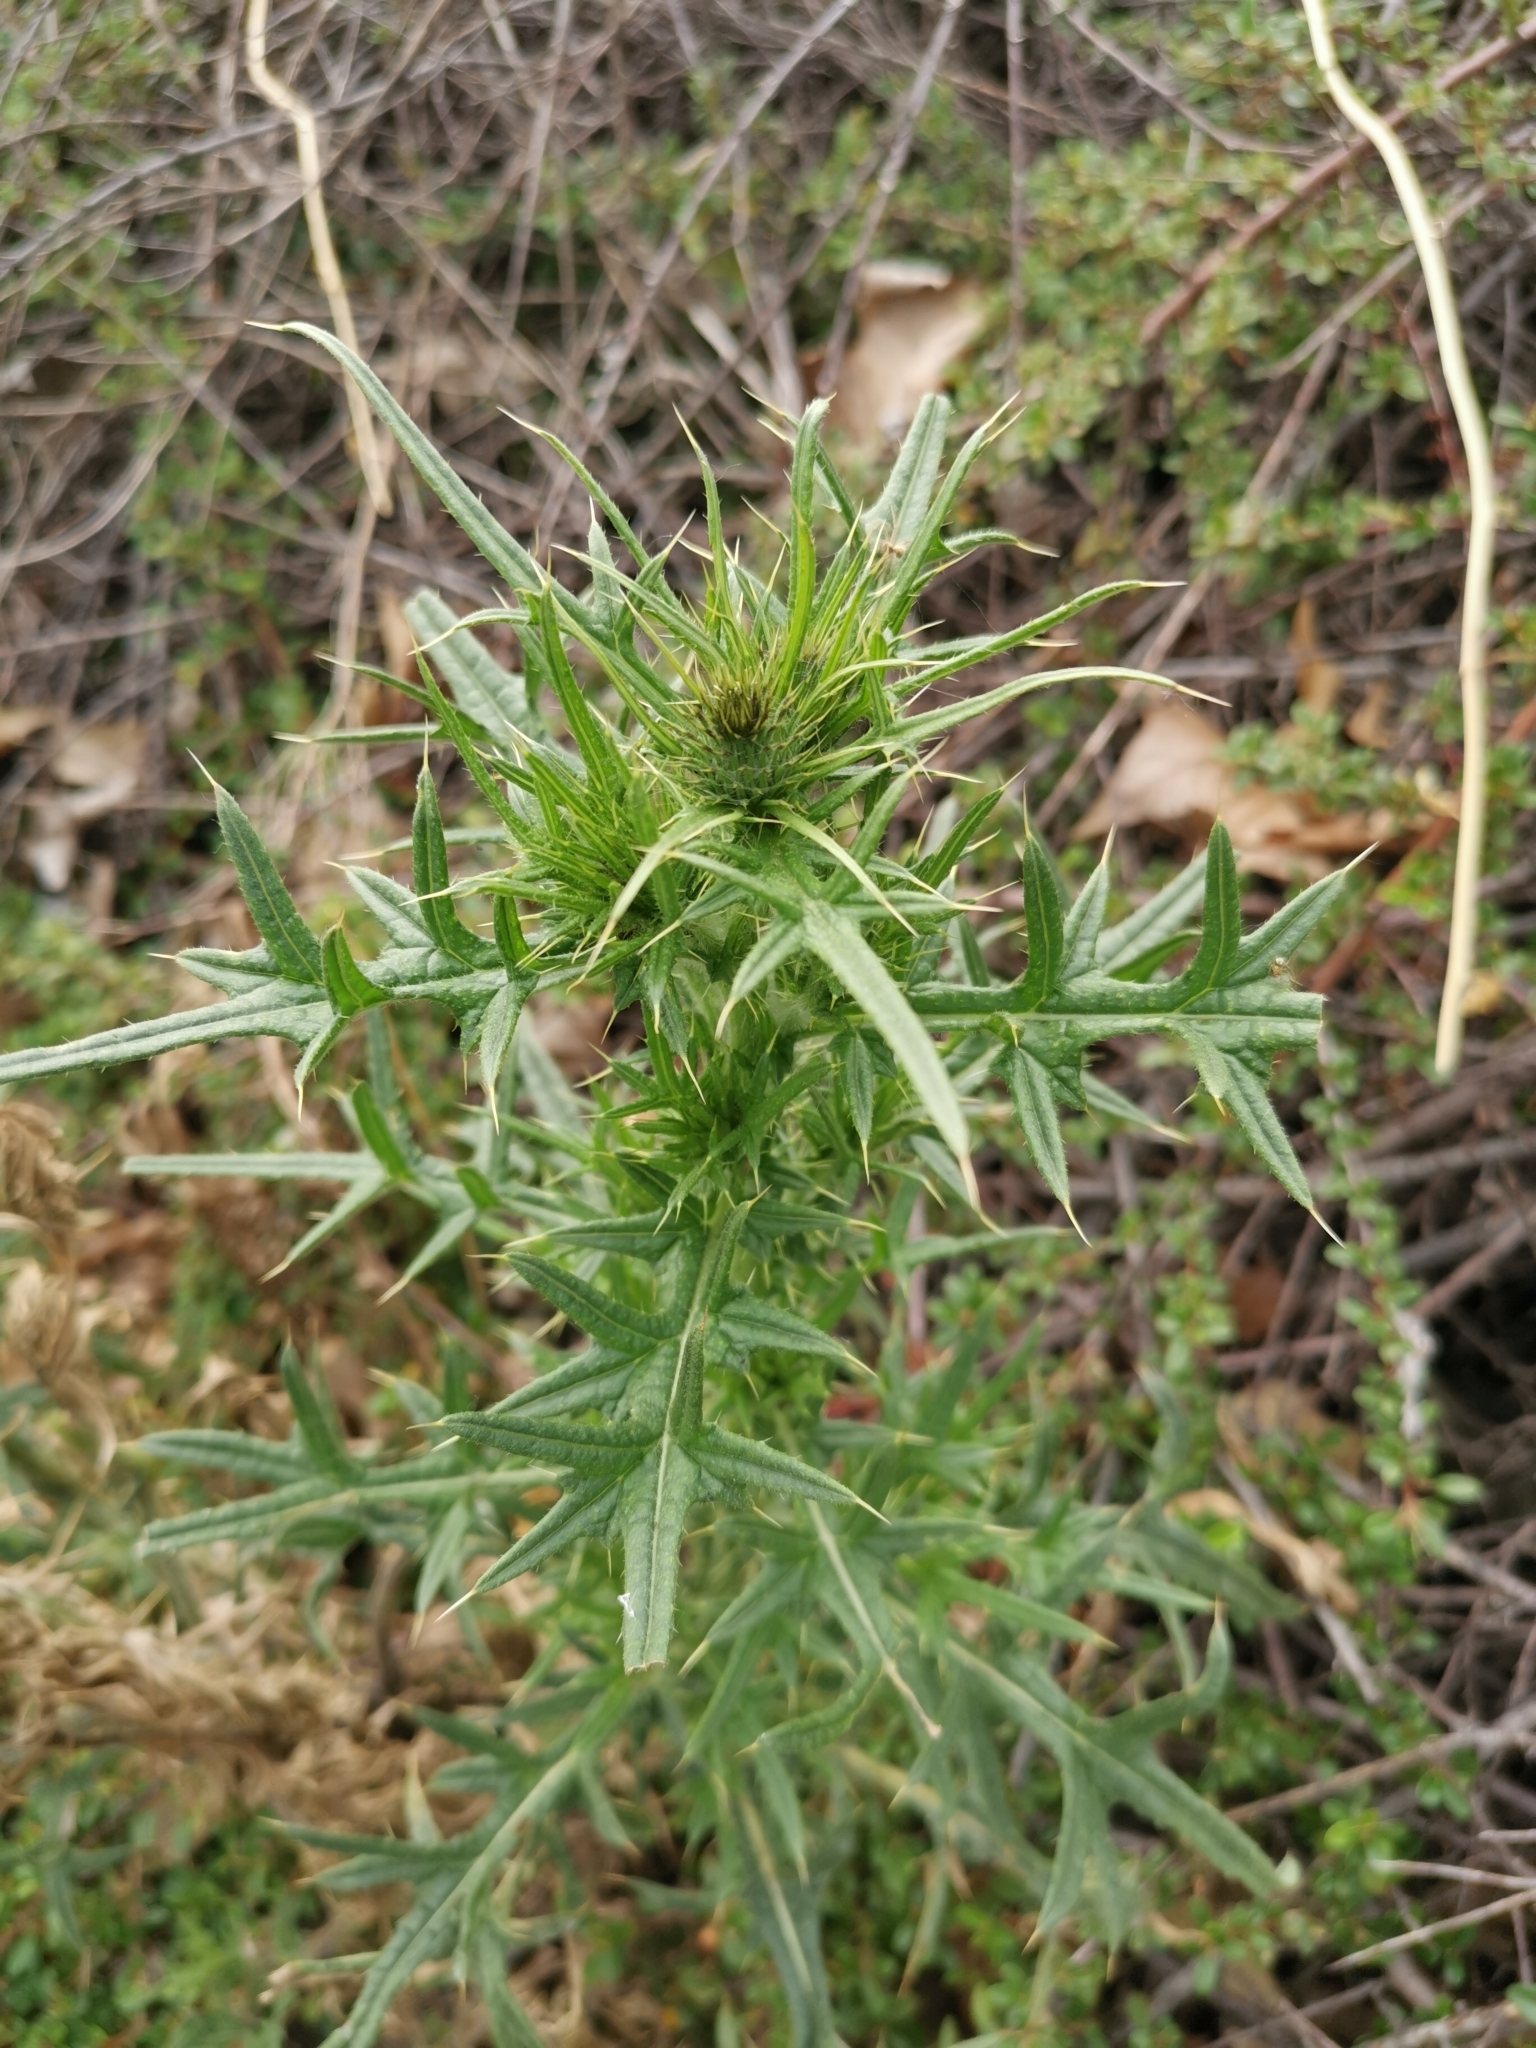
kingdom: Plantae
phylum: Tracheophyta
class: Magnoliopsida
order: Asterales
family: Asteraceae
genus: Cirsium
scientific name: Cirsium vulgare
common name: Bull thistle
